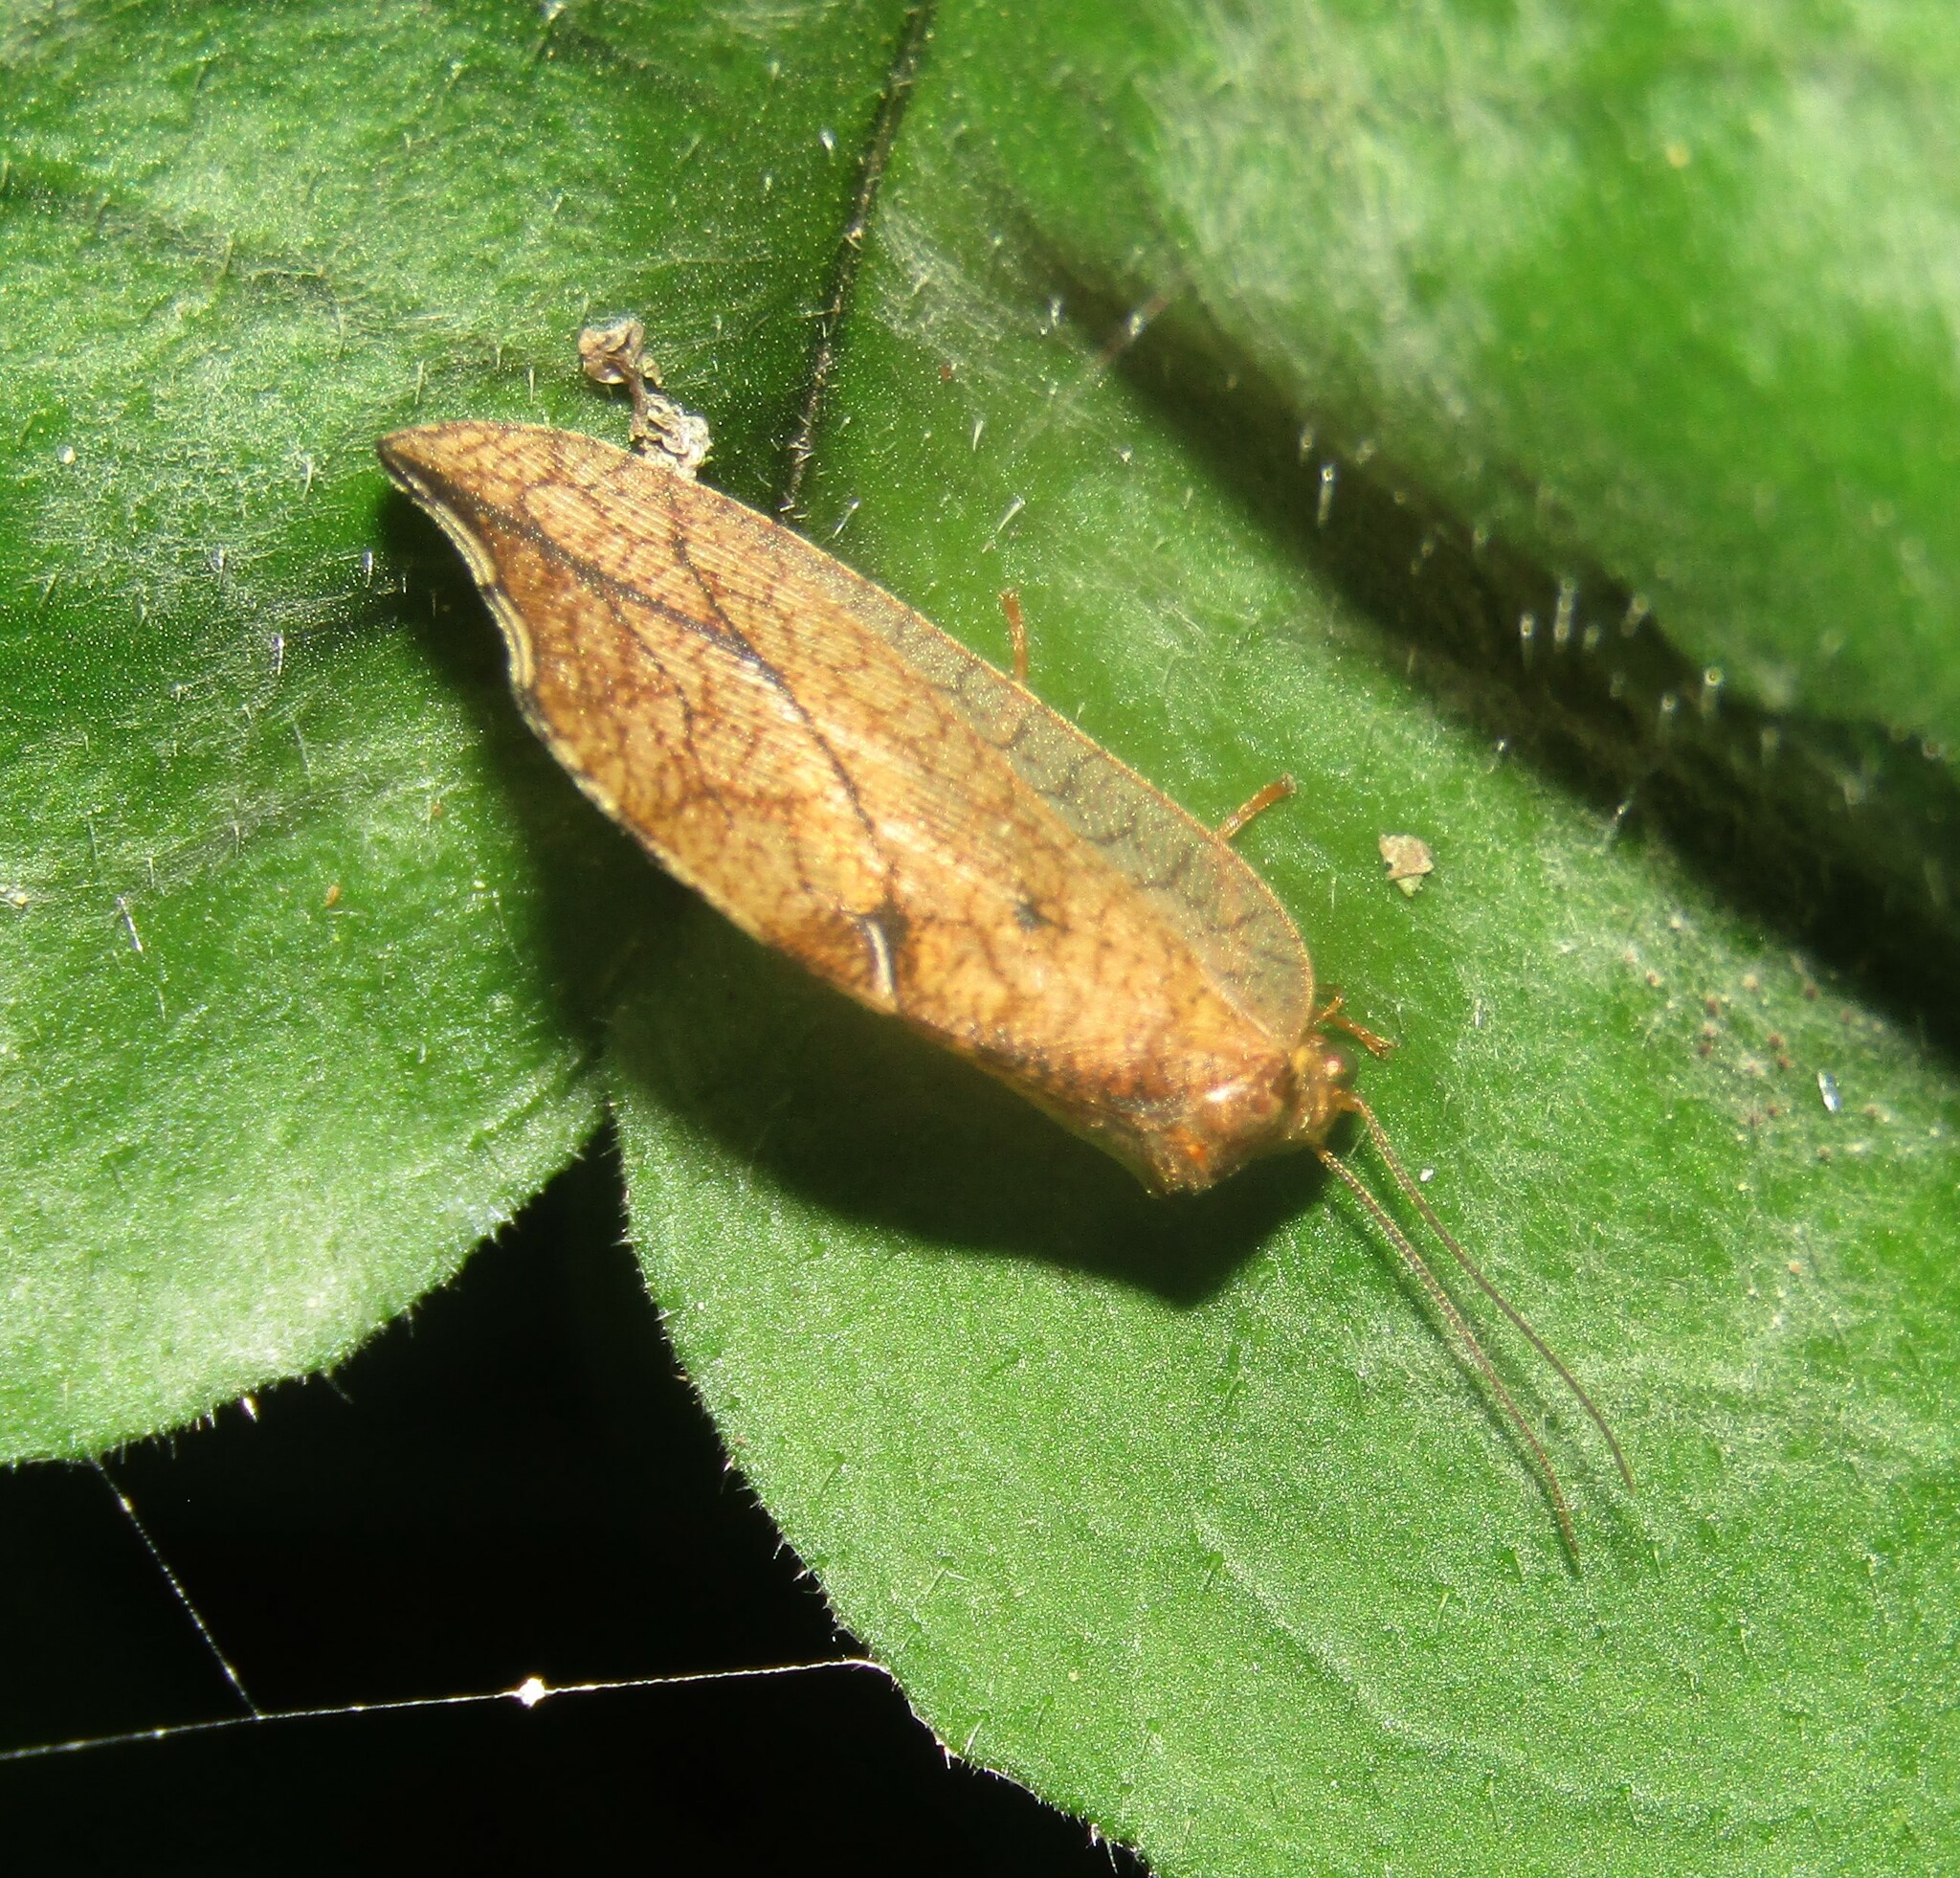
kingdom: Animalia
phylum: Arthropoda
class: Insecta
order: Neuroptera
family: Hemerobiidae
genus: Drepanepteryx
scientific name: Drepanepteryx phalaenoides
